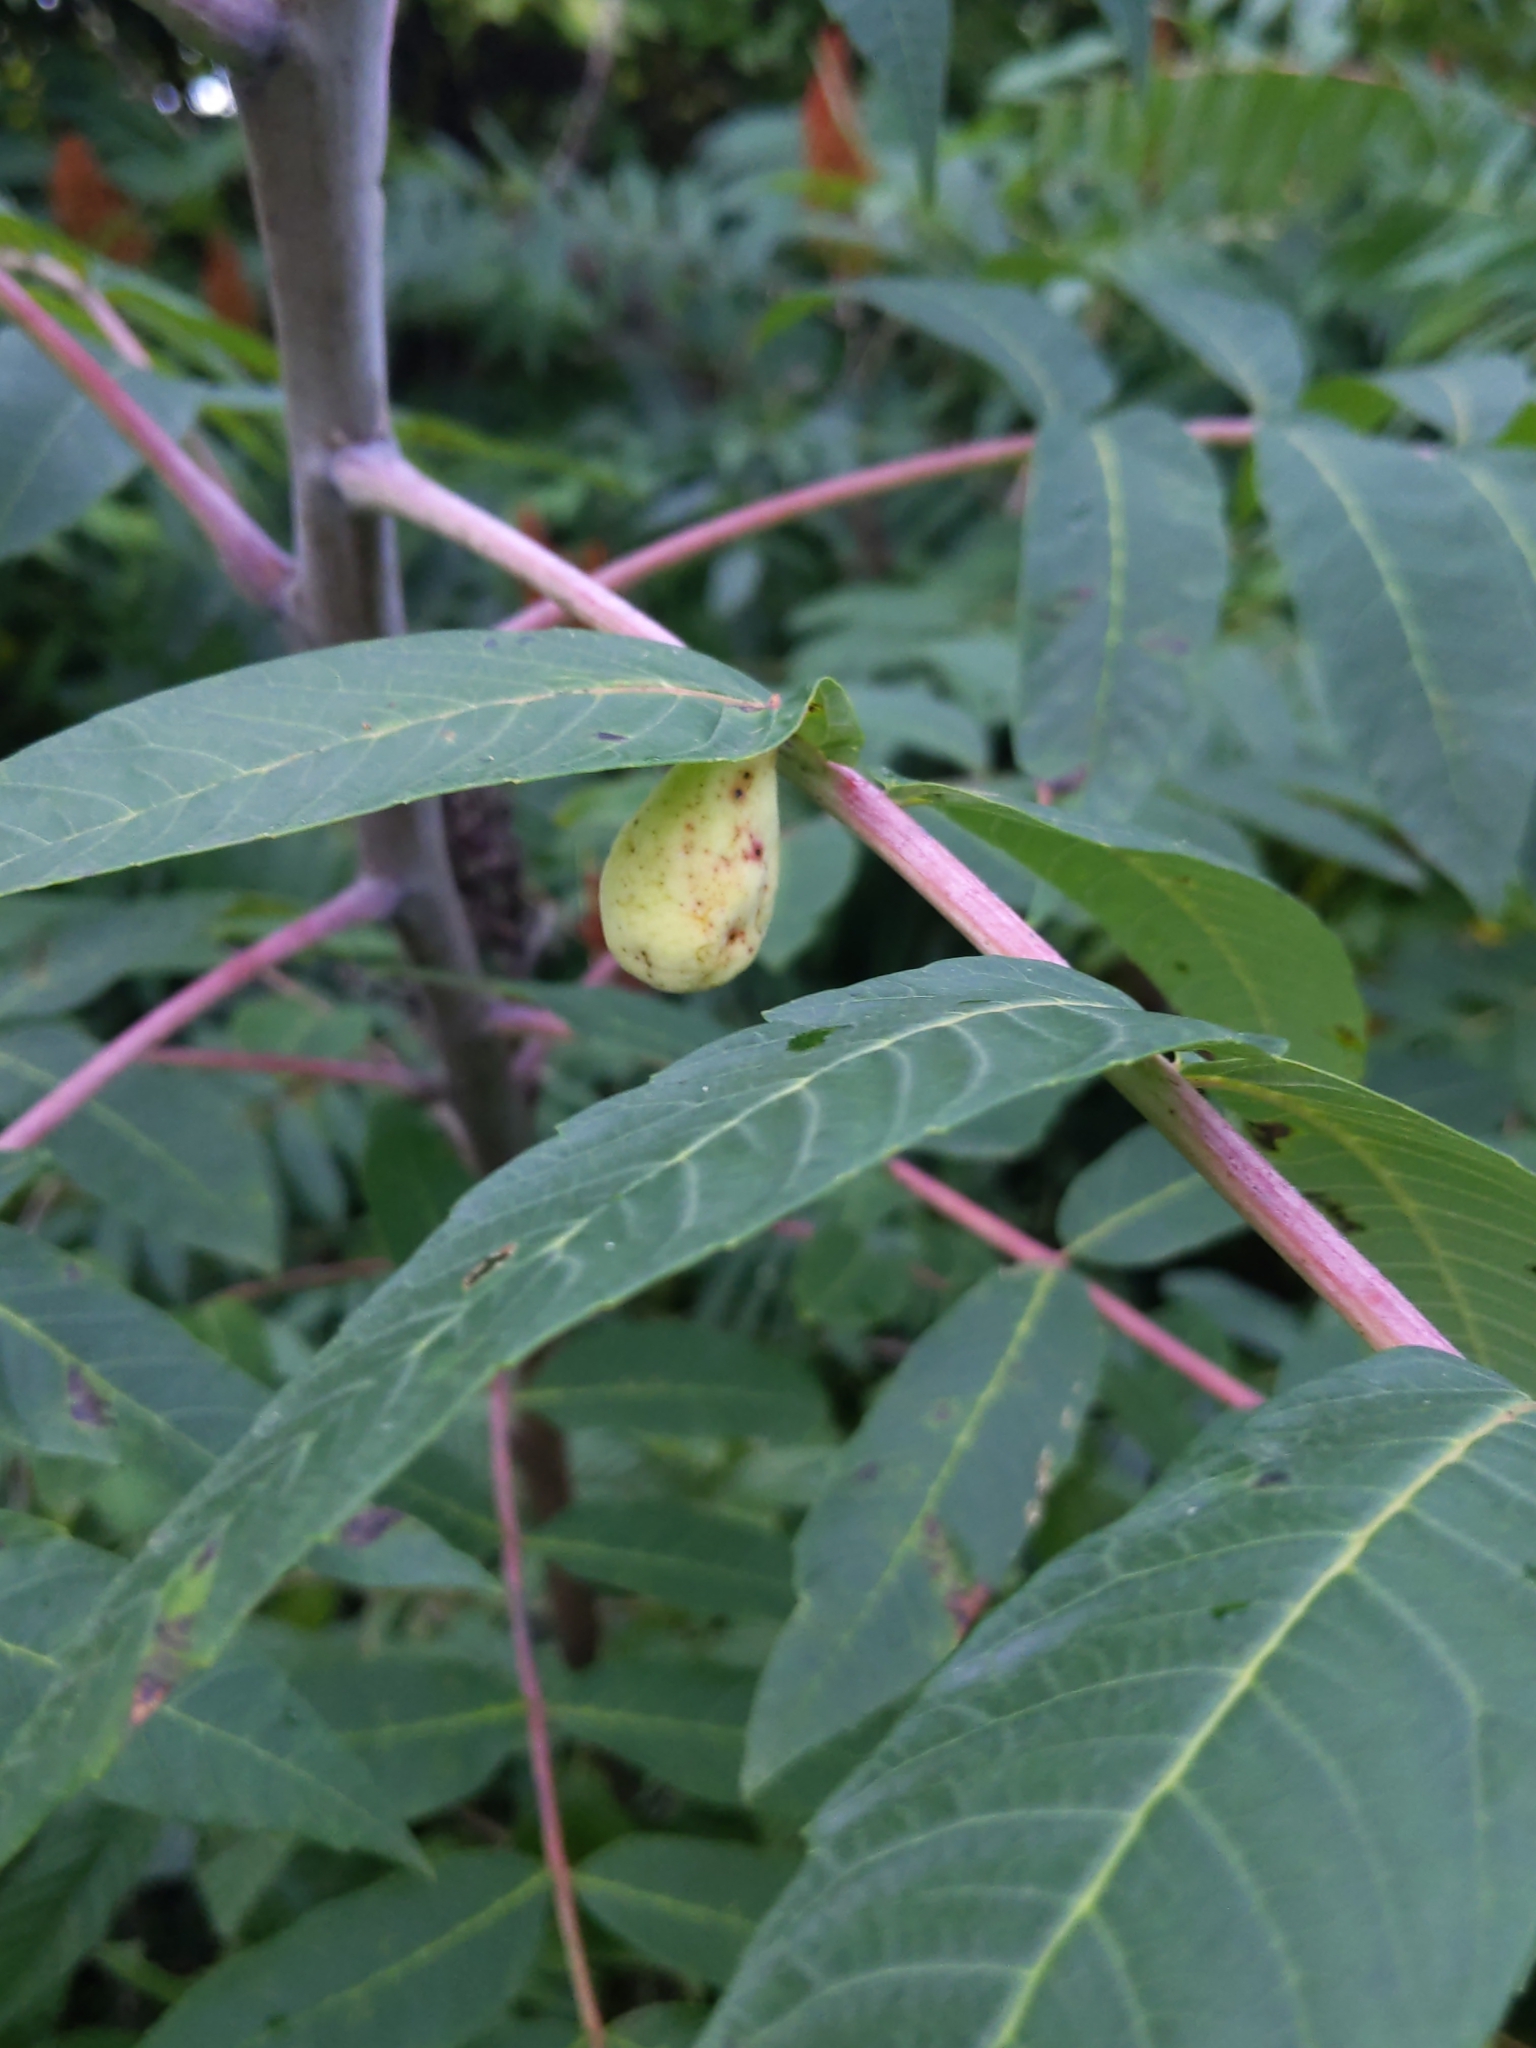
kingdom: Animalia
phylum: Arthropoda
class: Insecta
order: Hemiptera
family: Aphididae
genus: Melaphis
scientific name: Melaphis rhois
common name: Sumac gall aphid
